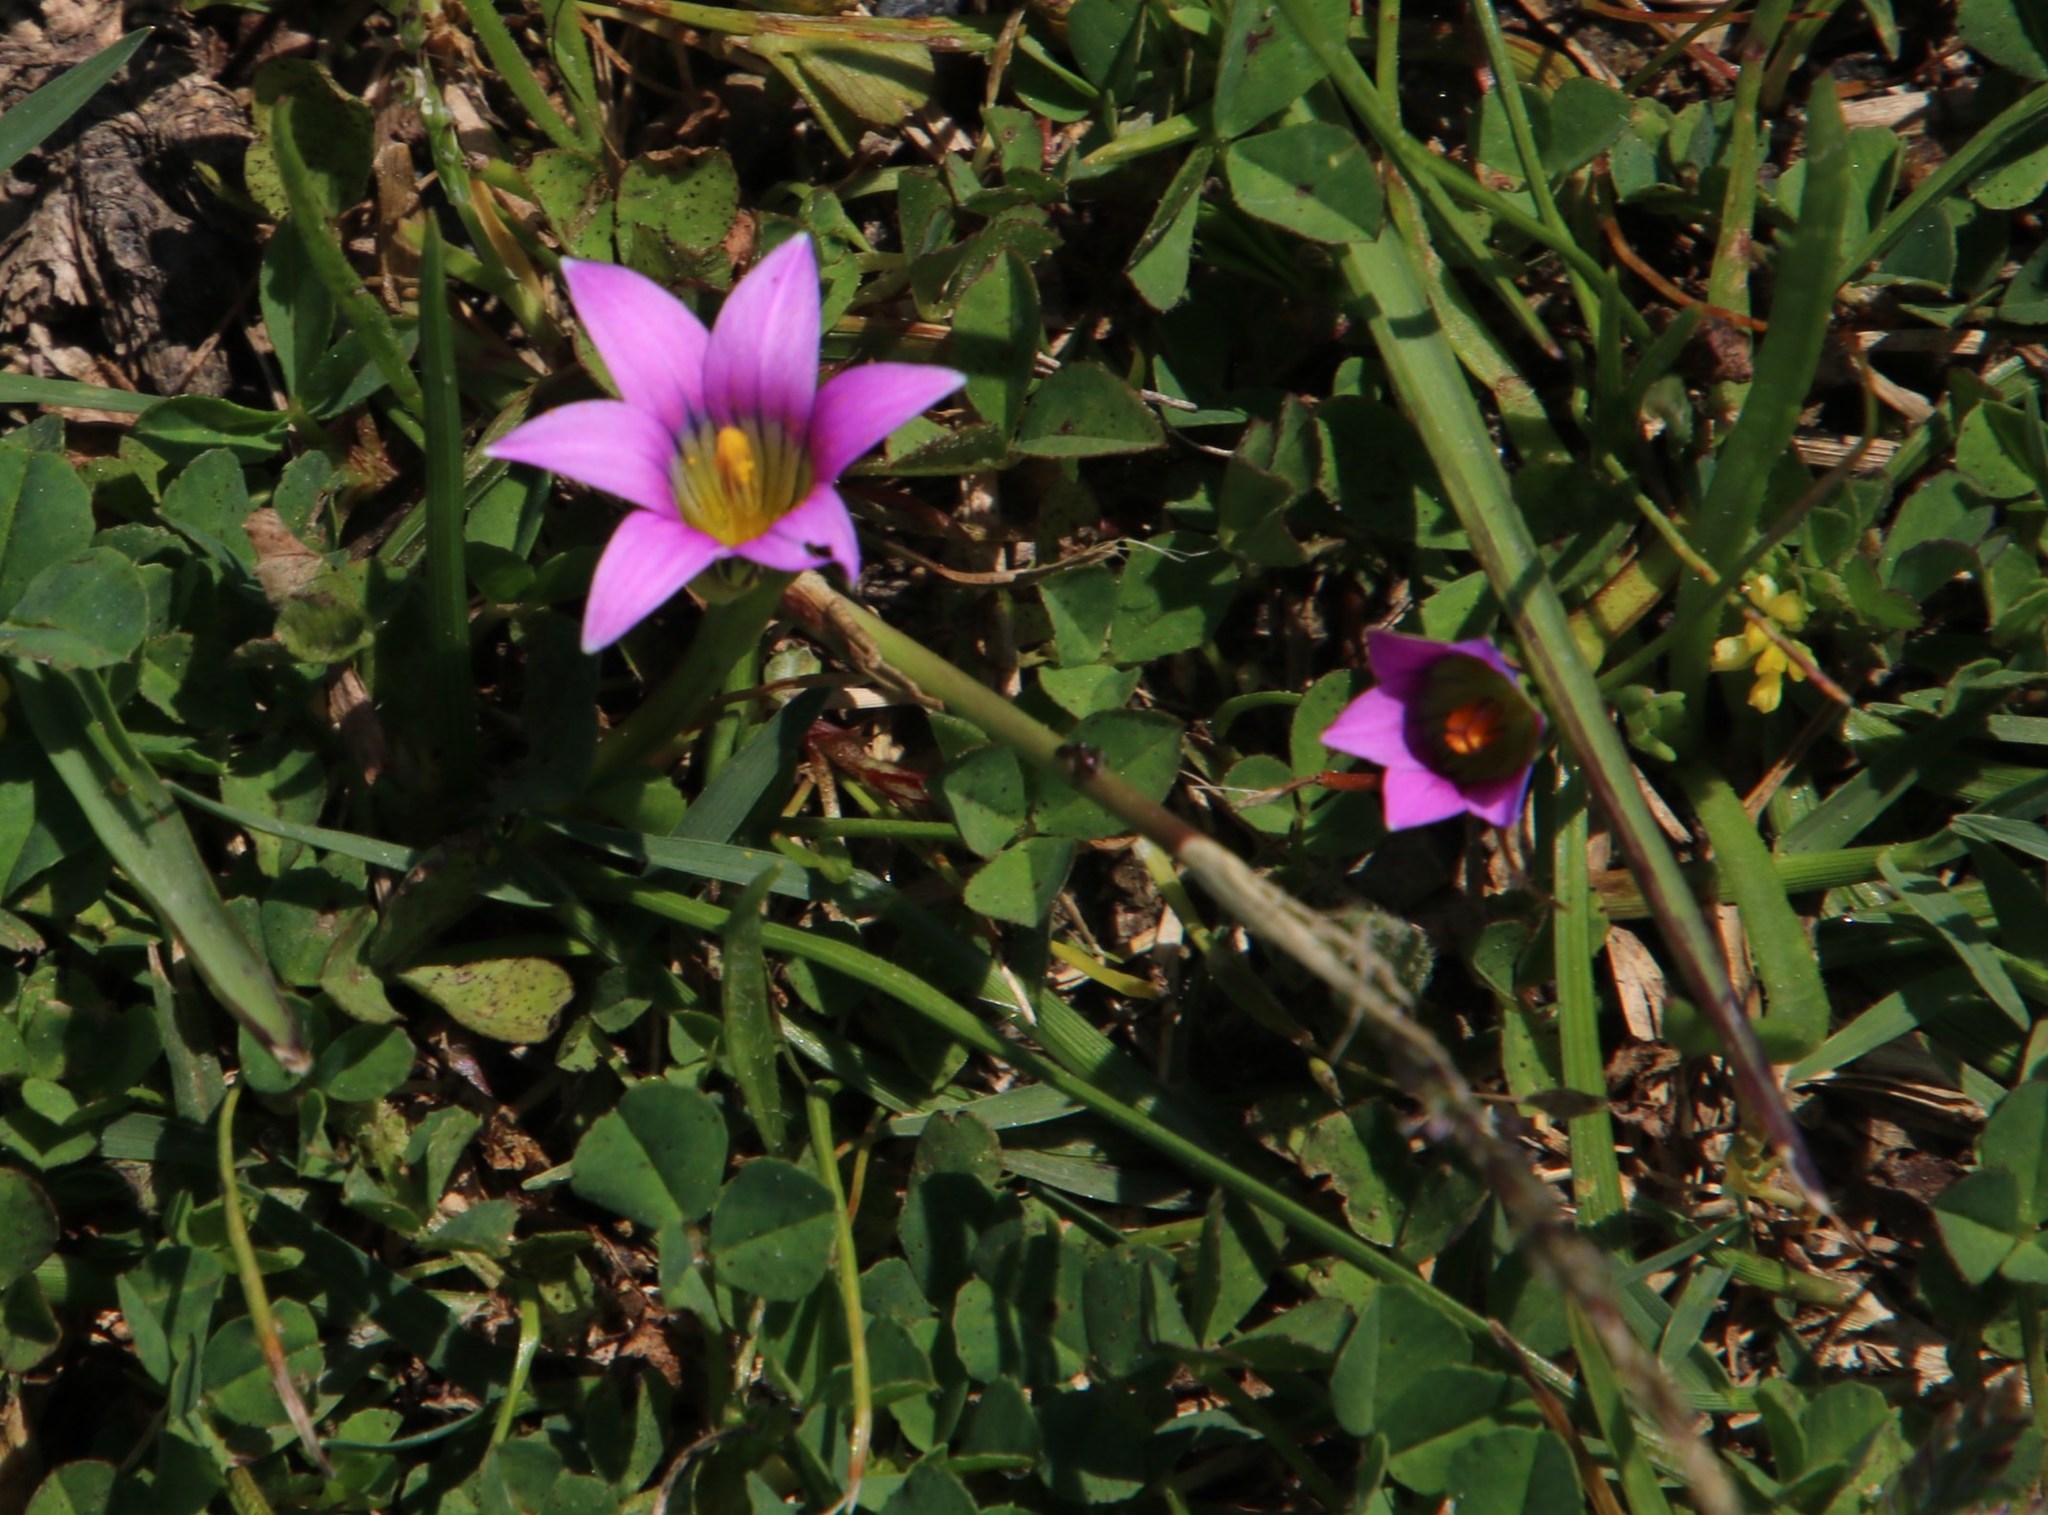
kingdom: Plantae
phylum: Tracheophyta
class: Liliopsida
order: Asparagales
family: Iridaceae
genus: Romulea
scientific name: Romulea rosea
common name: Oniongrass
